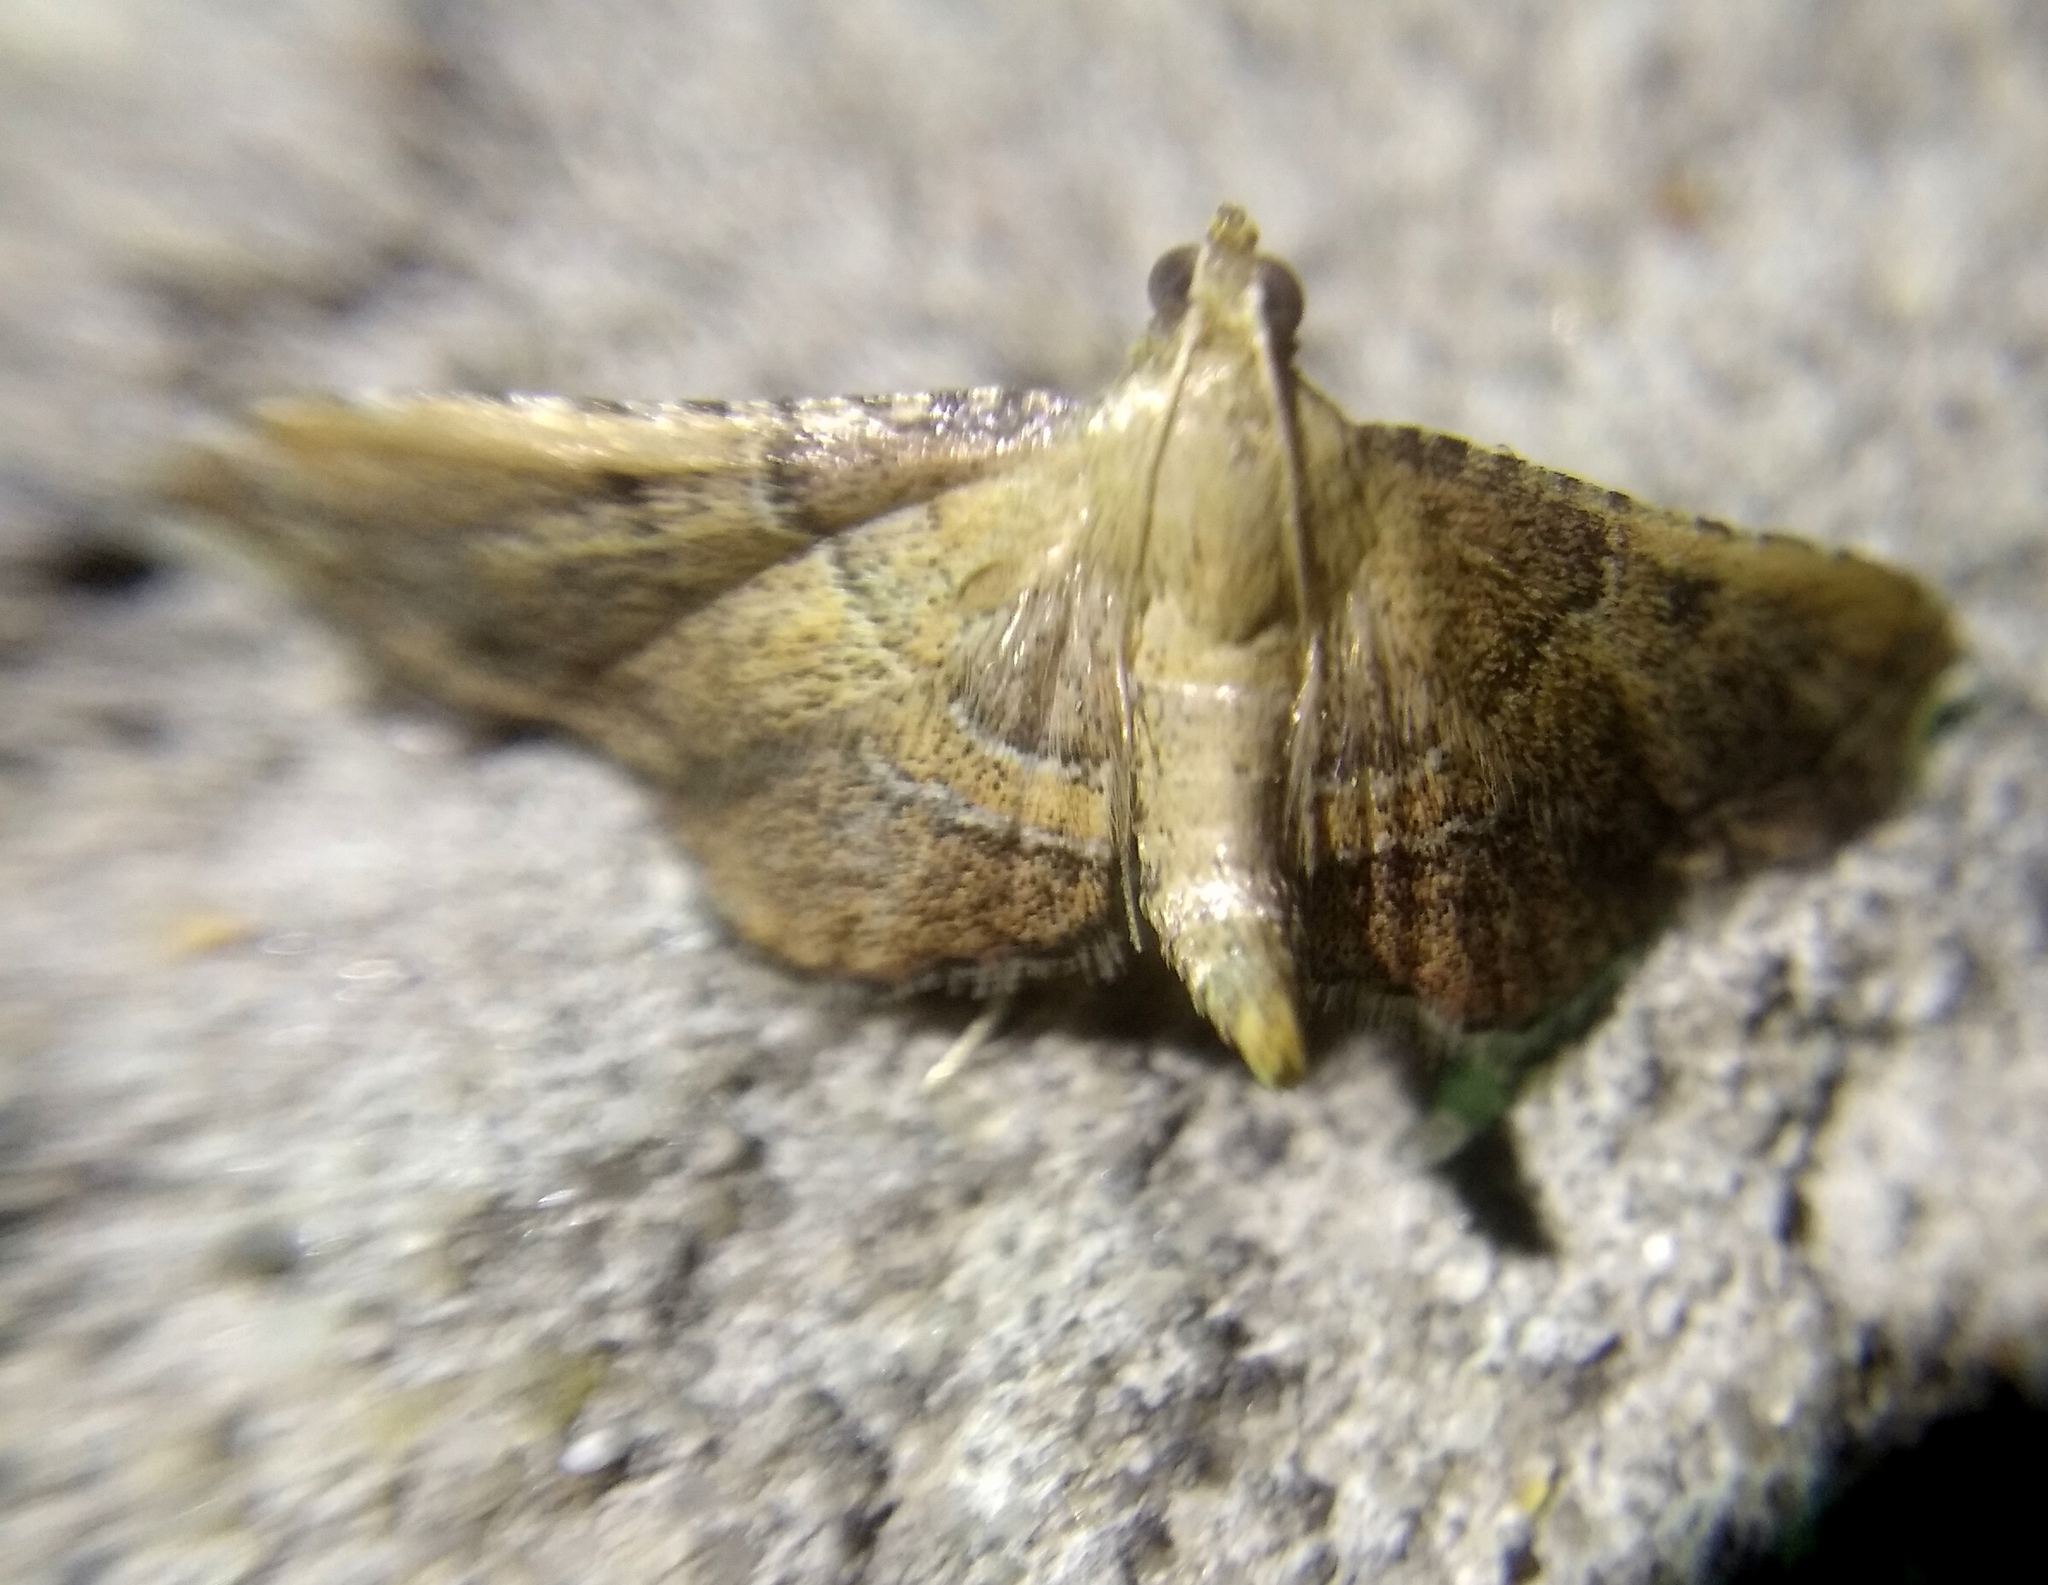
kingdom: Animalia
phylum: Arthropoda
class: Insecta
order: Lepidoptera
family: Pyralidae
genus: Endotricha
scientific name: Endotricha flammealis
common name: Rosy tabby
